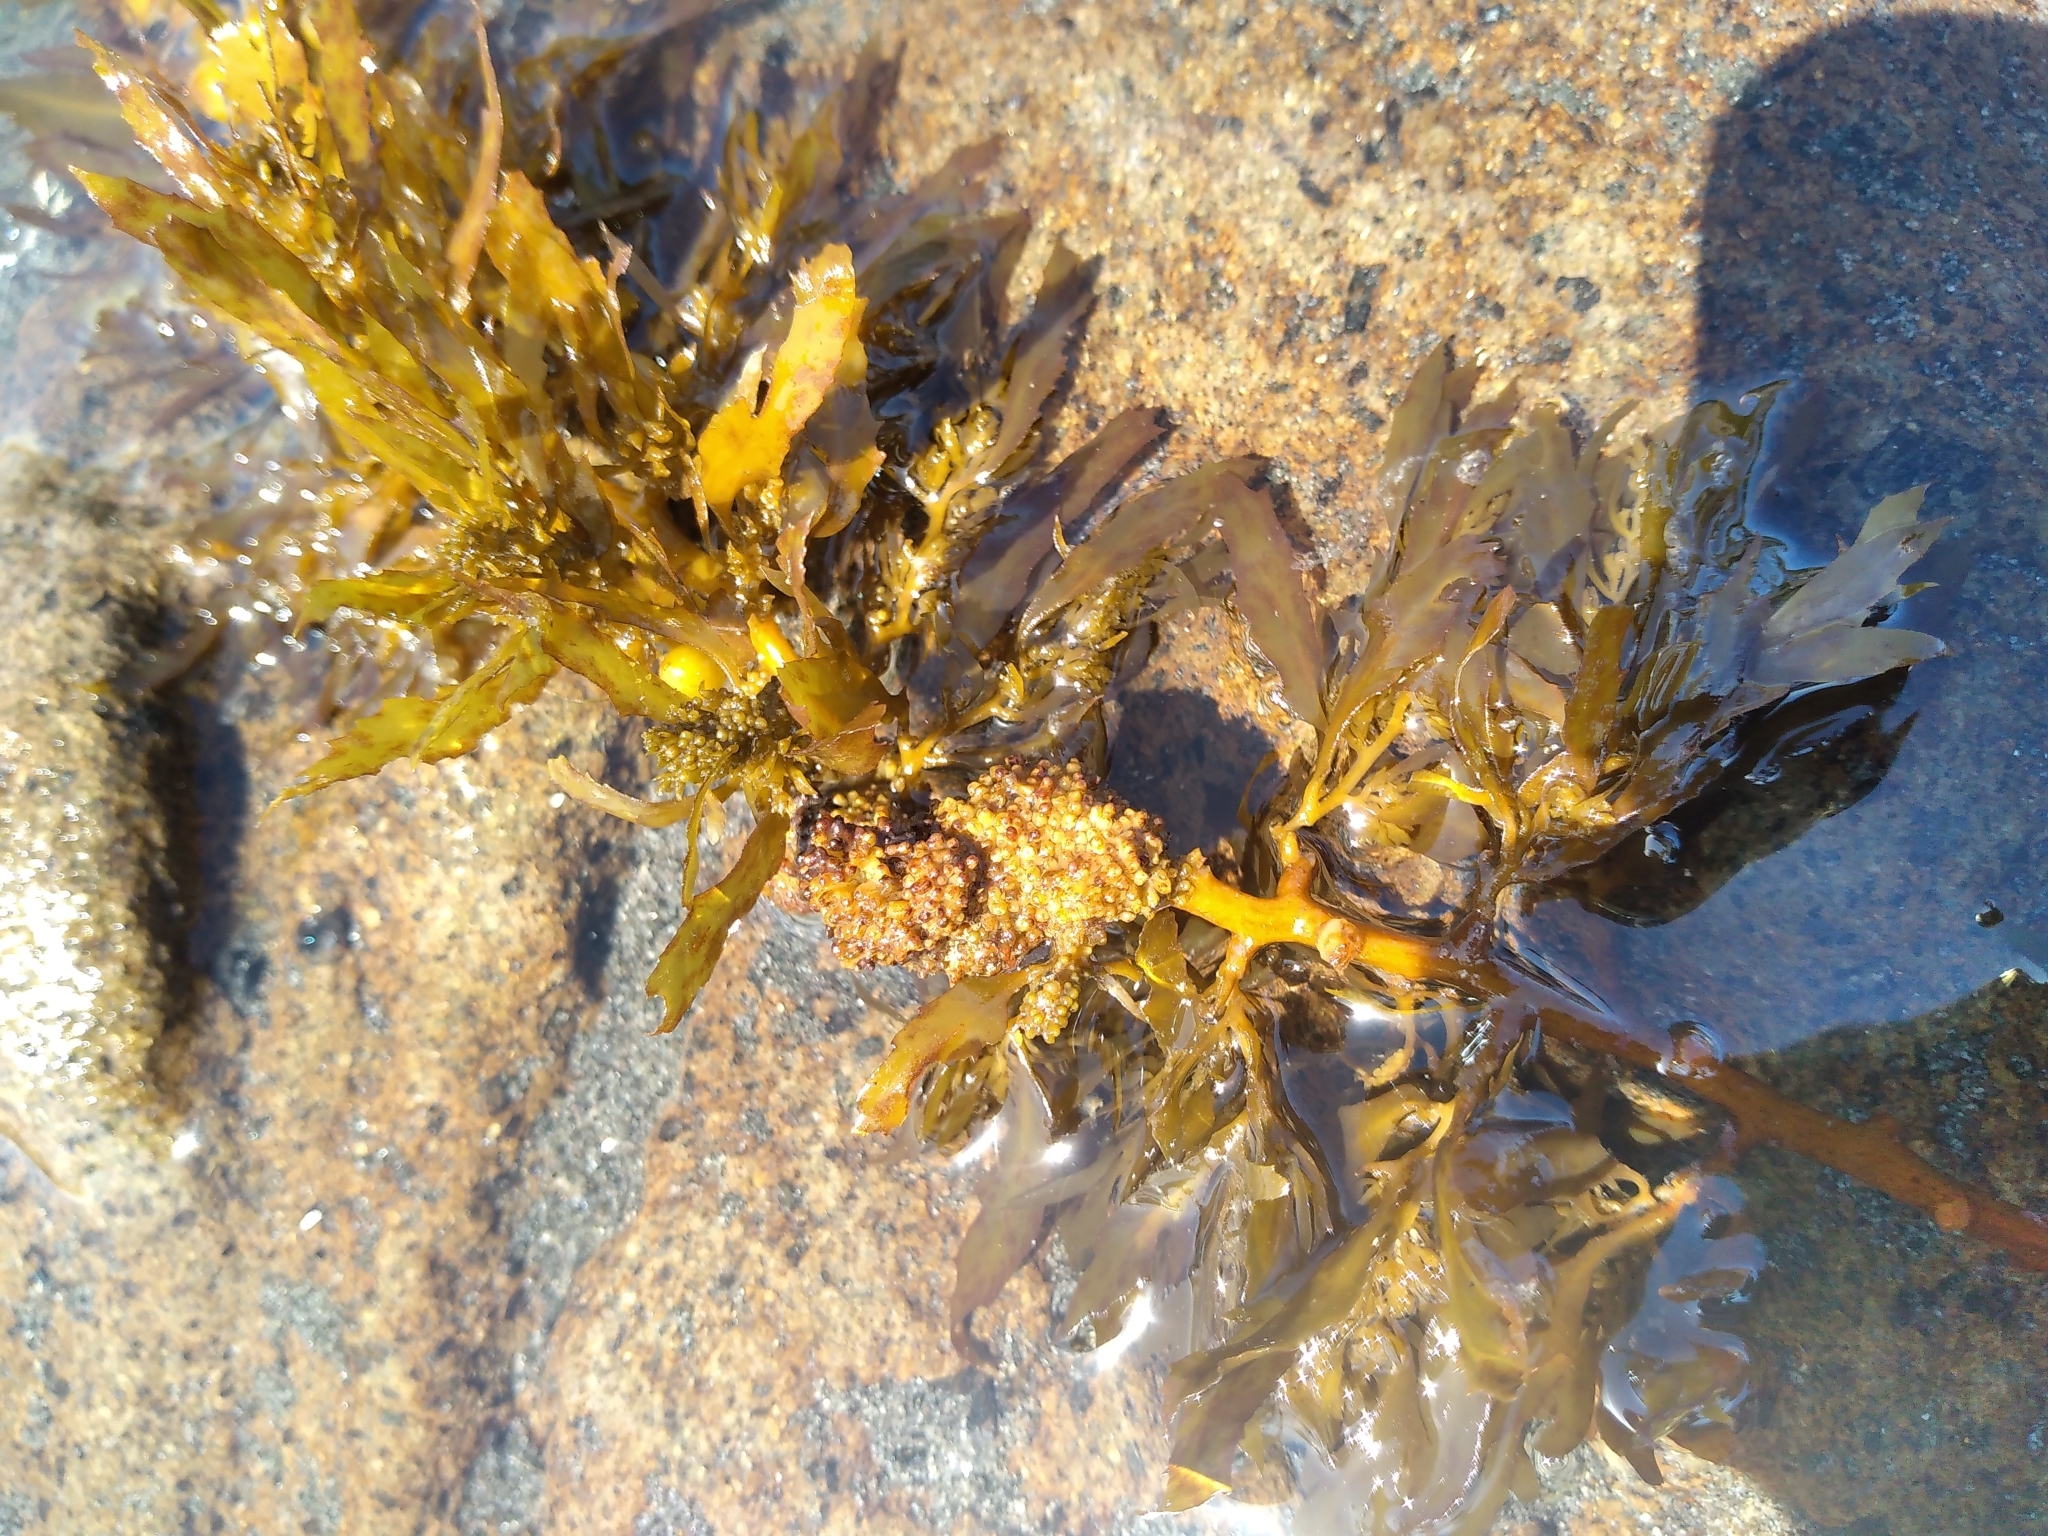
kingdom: Chromista
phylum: Ochrophyta
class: Phaeophyceae
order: Fucales
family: Sargassaceae
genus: Sargassum
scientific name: Sargassum sinclairii
